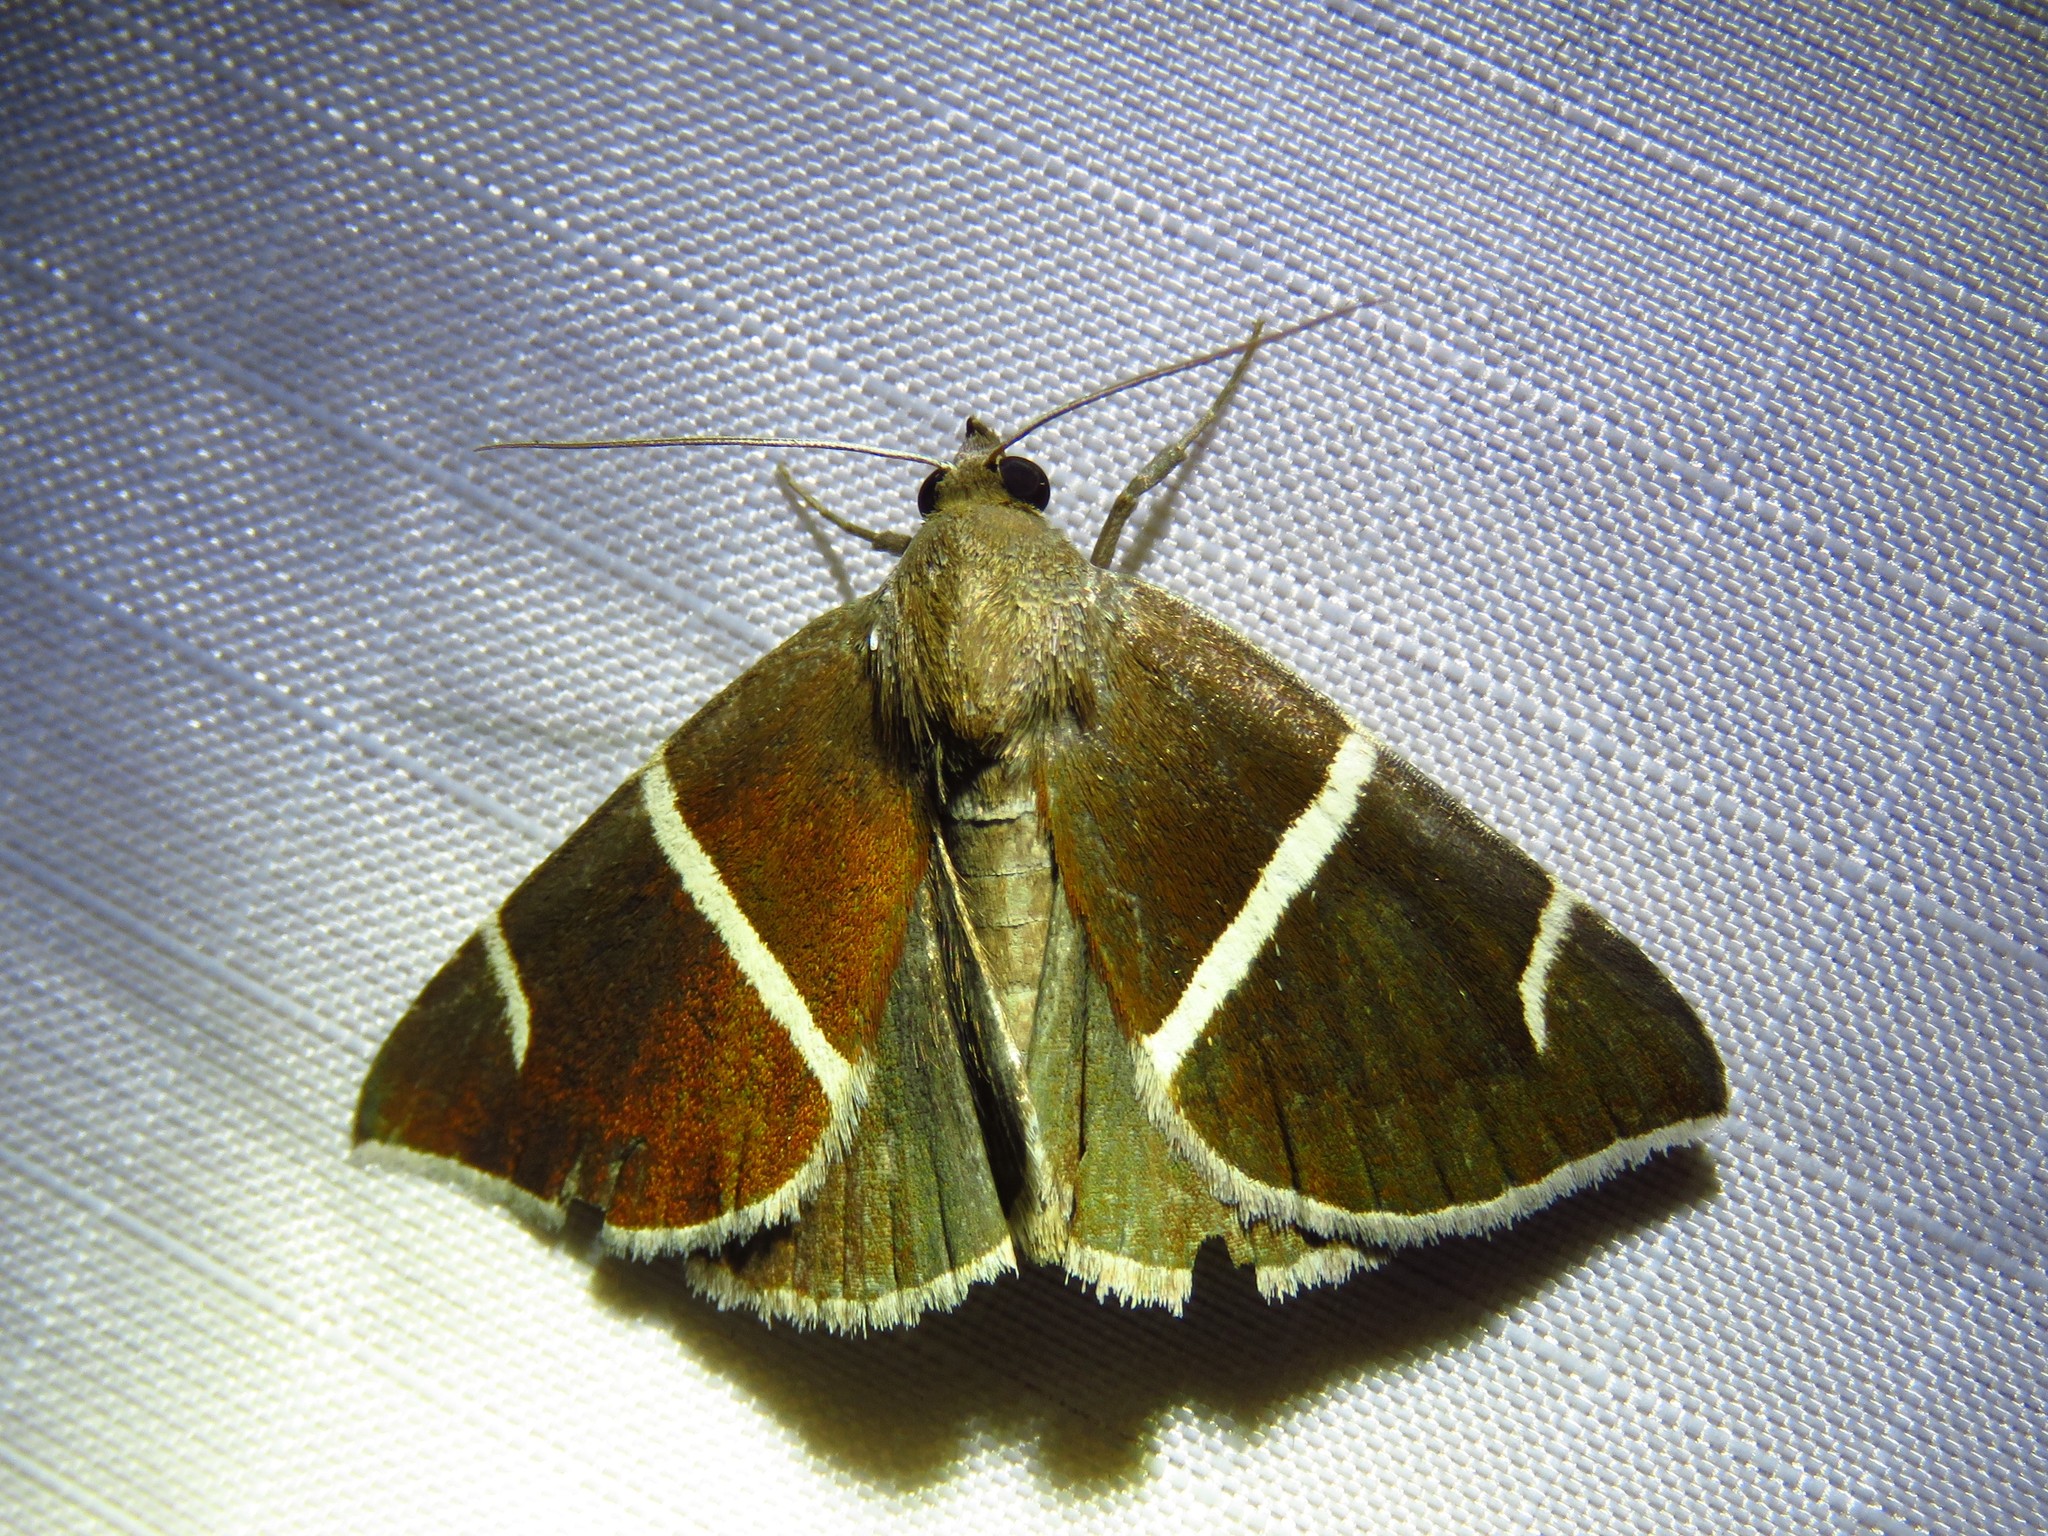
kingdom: Animalia
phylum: Arthropoda
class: Insecta
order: Lepidoptera
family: Erebidae
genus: Argyrostrotis
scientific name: Argyrostrotis anilis
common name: Short-lined chocolate
